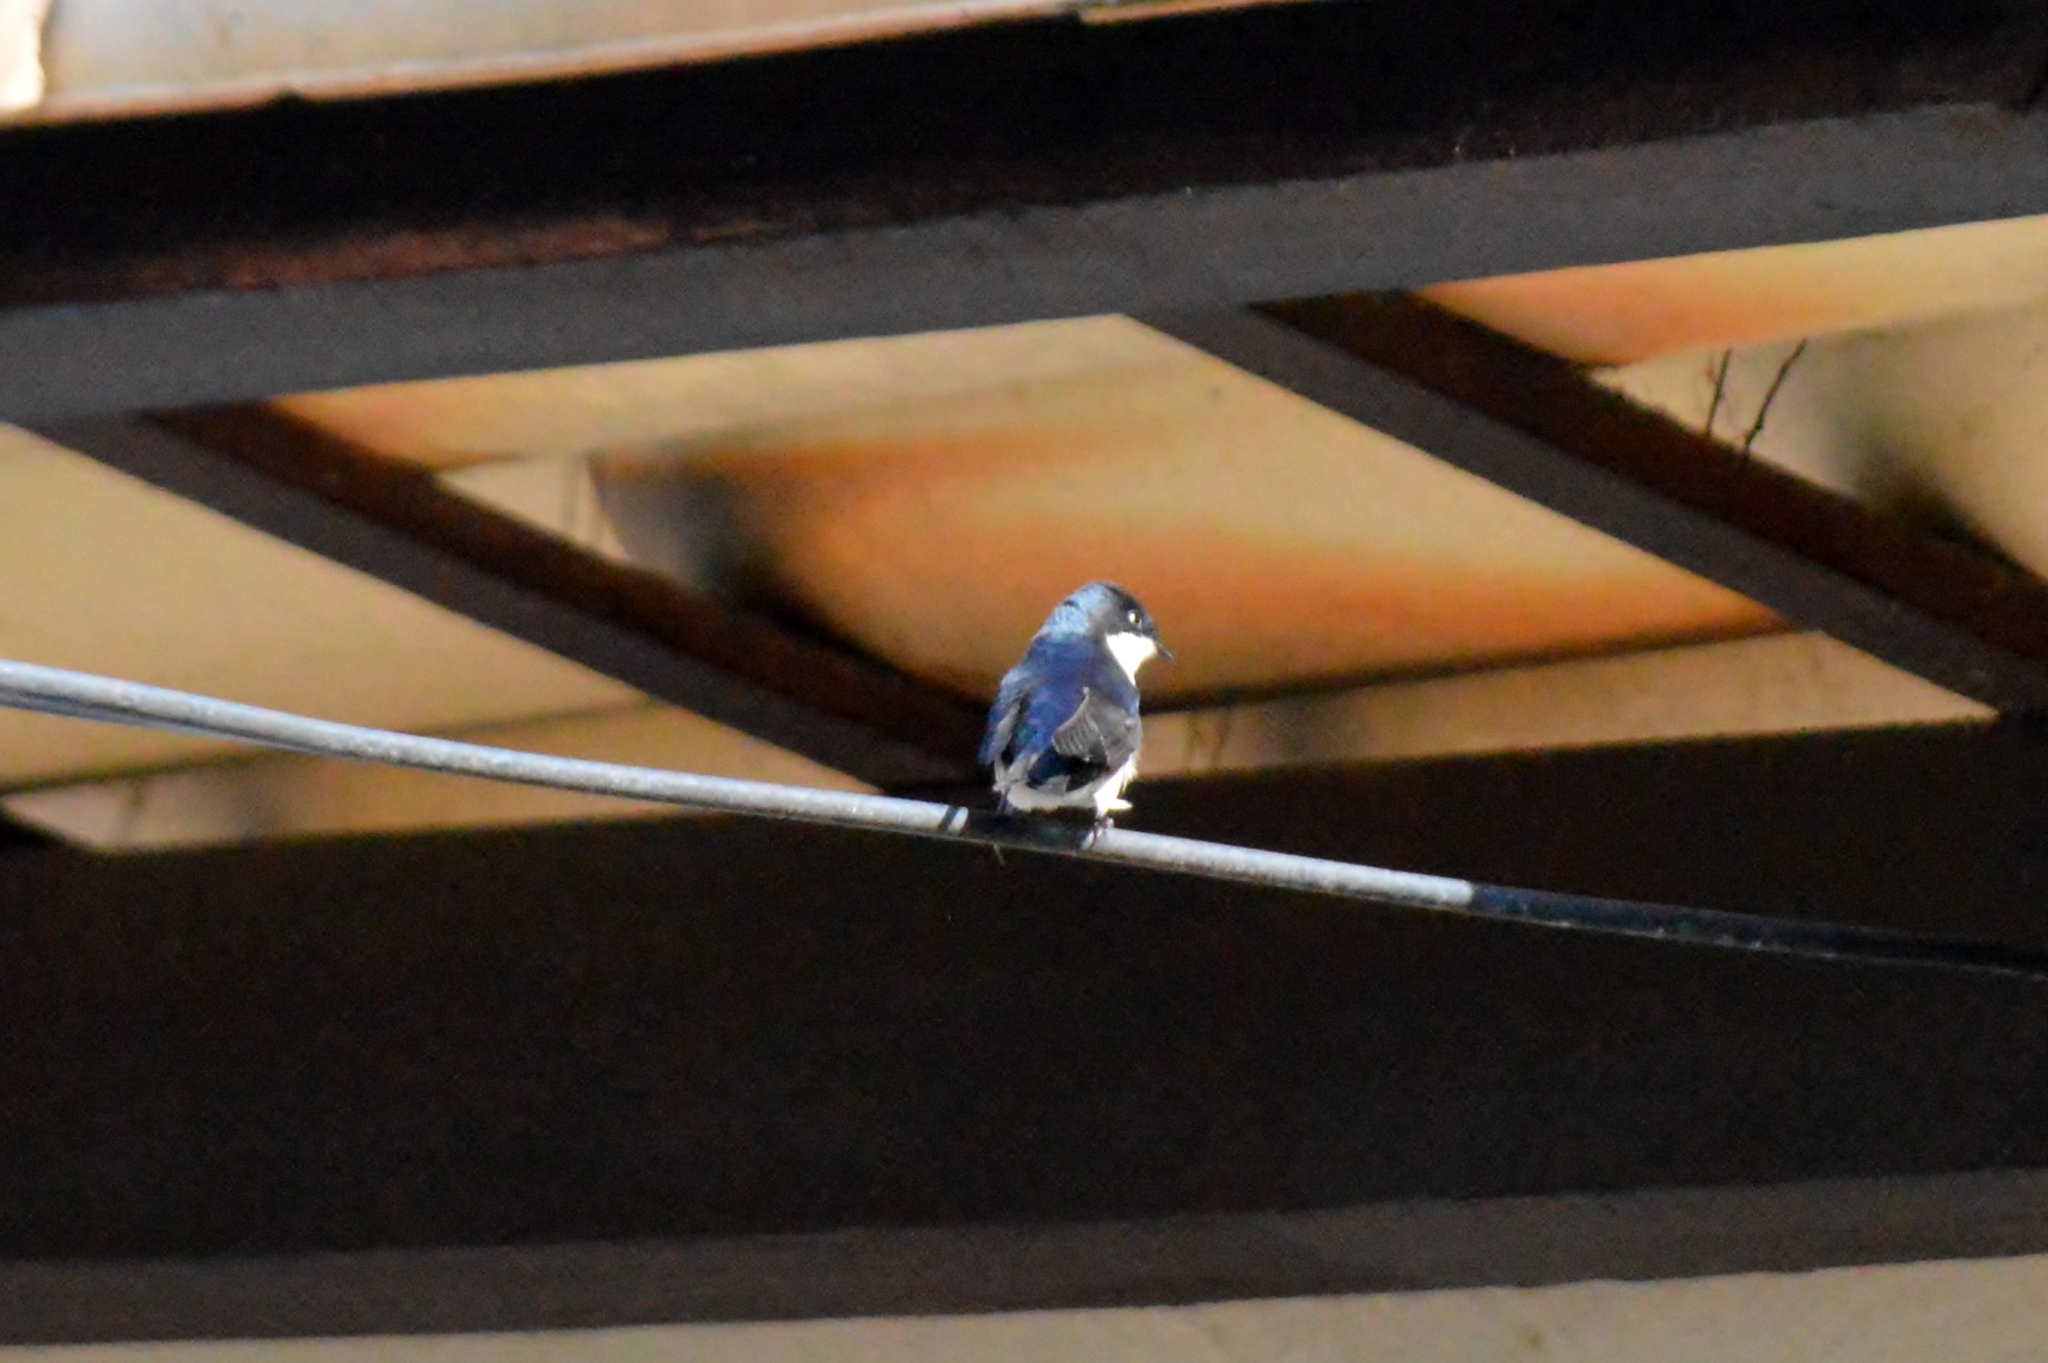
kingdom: Animalia
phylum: Chordata
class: Aves
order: Passeriformes
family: Hirundinidae
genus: Notiochelidon
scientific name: Notiochelidon cyanoleuca
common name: Blue-and-white swallow
